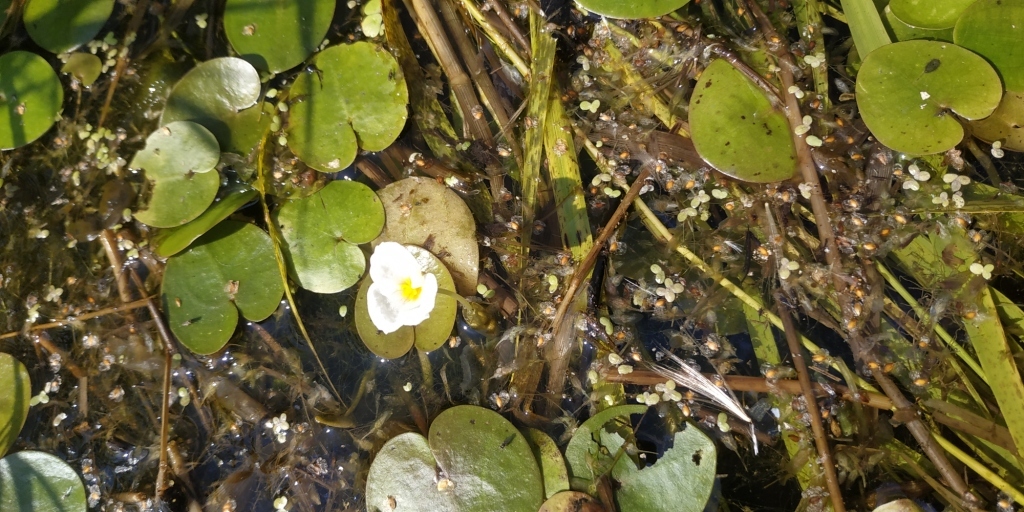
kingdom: Plantae
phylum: Tracheophyta
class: Liliopsida
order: Alismatales
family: Hydrocharitaceae
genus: Hydrocharis
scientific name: Hydrocharis morsus-ranae
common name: Frogbit
